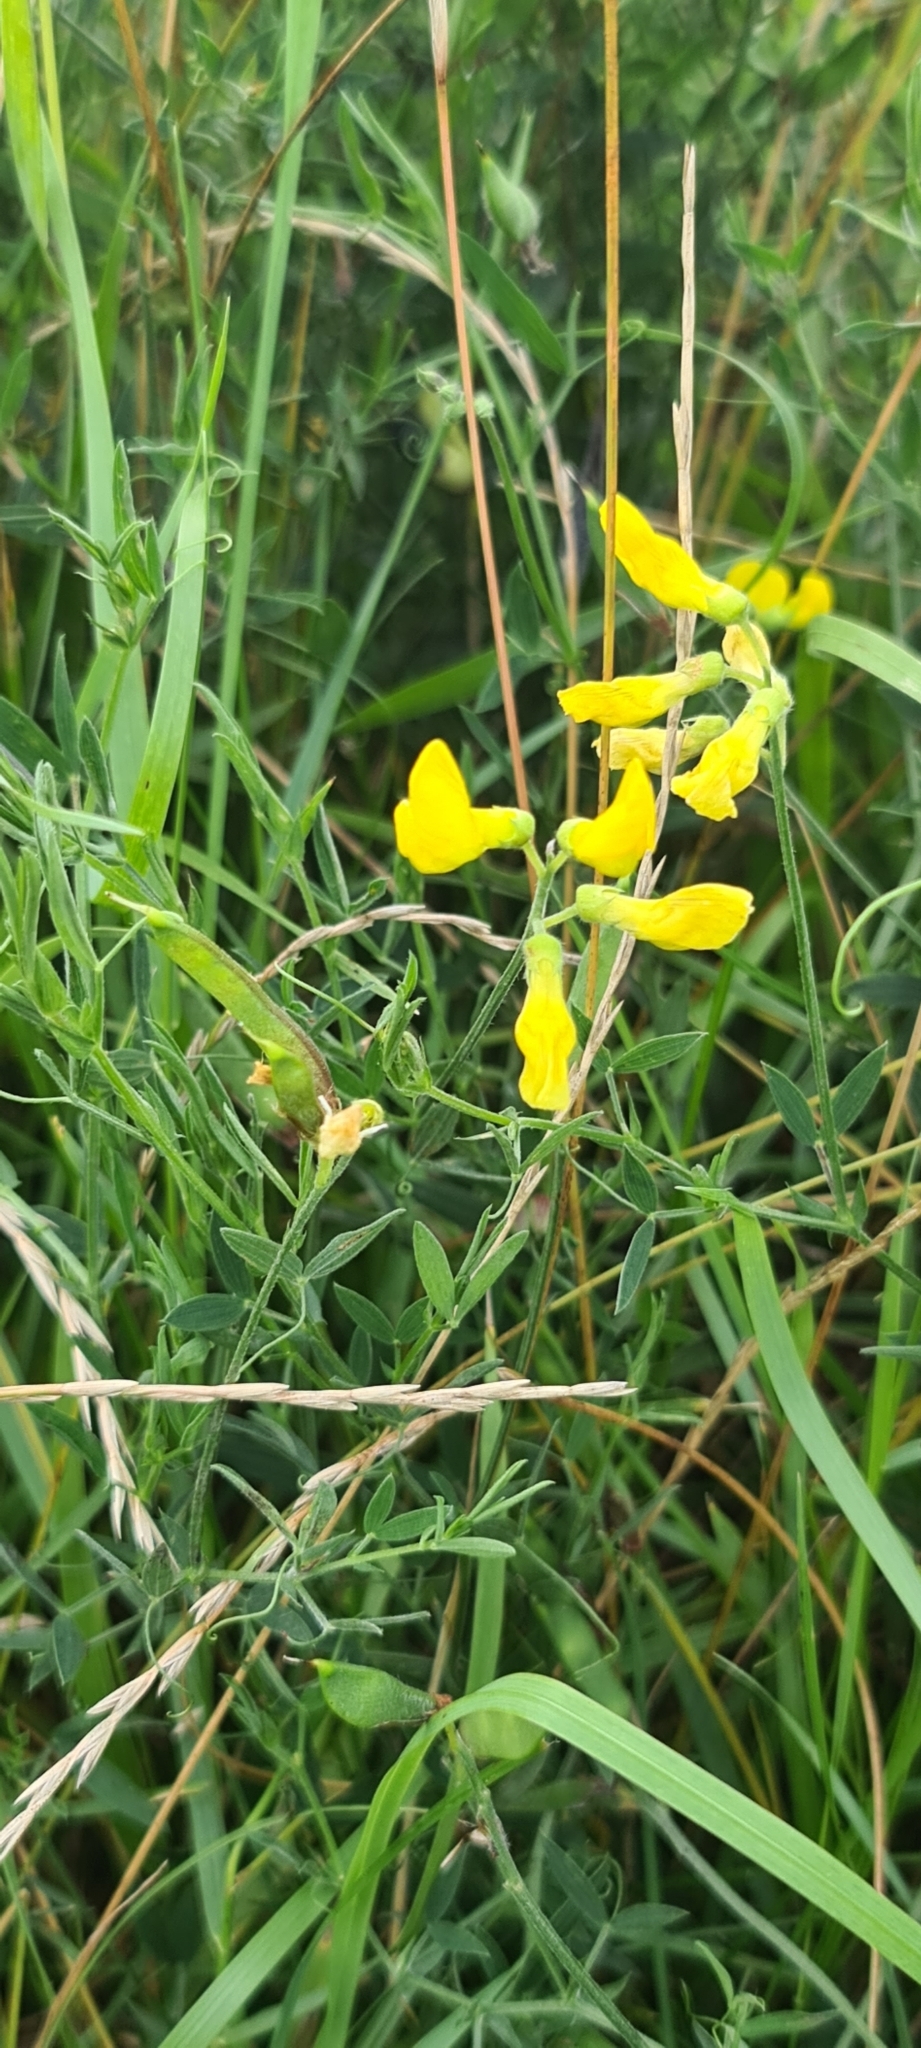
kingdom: Plantae
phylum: Tracheophyta
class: Magnoliopsida
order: Fabales
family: Fabaceae
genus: Lathyrus
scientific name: Lathyrus pratensis
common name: Meadow vetchling
